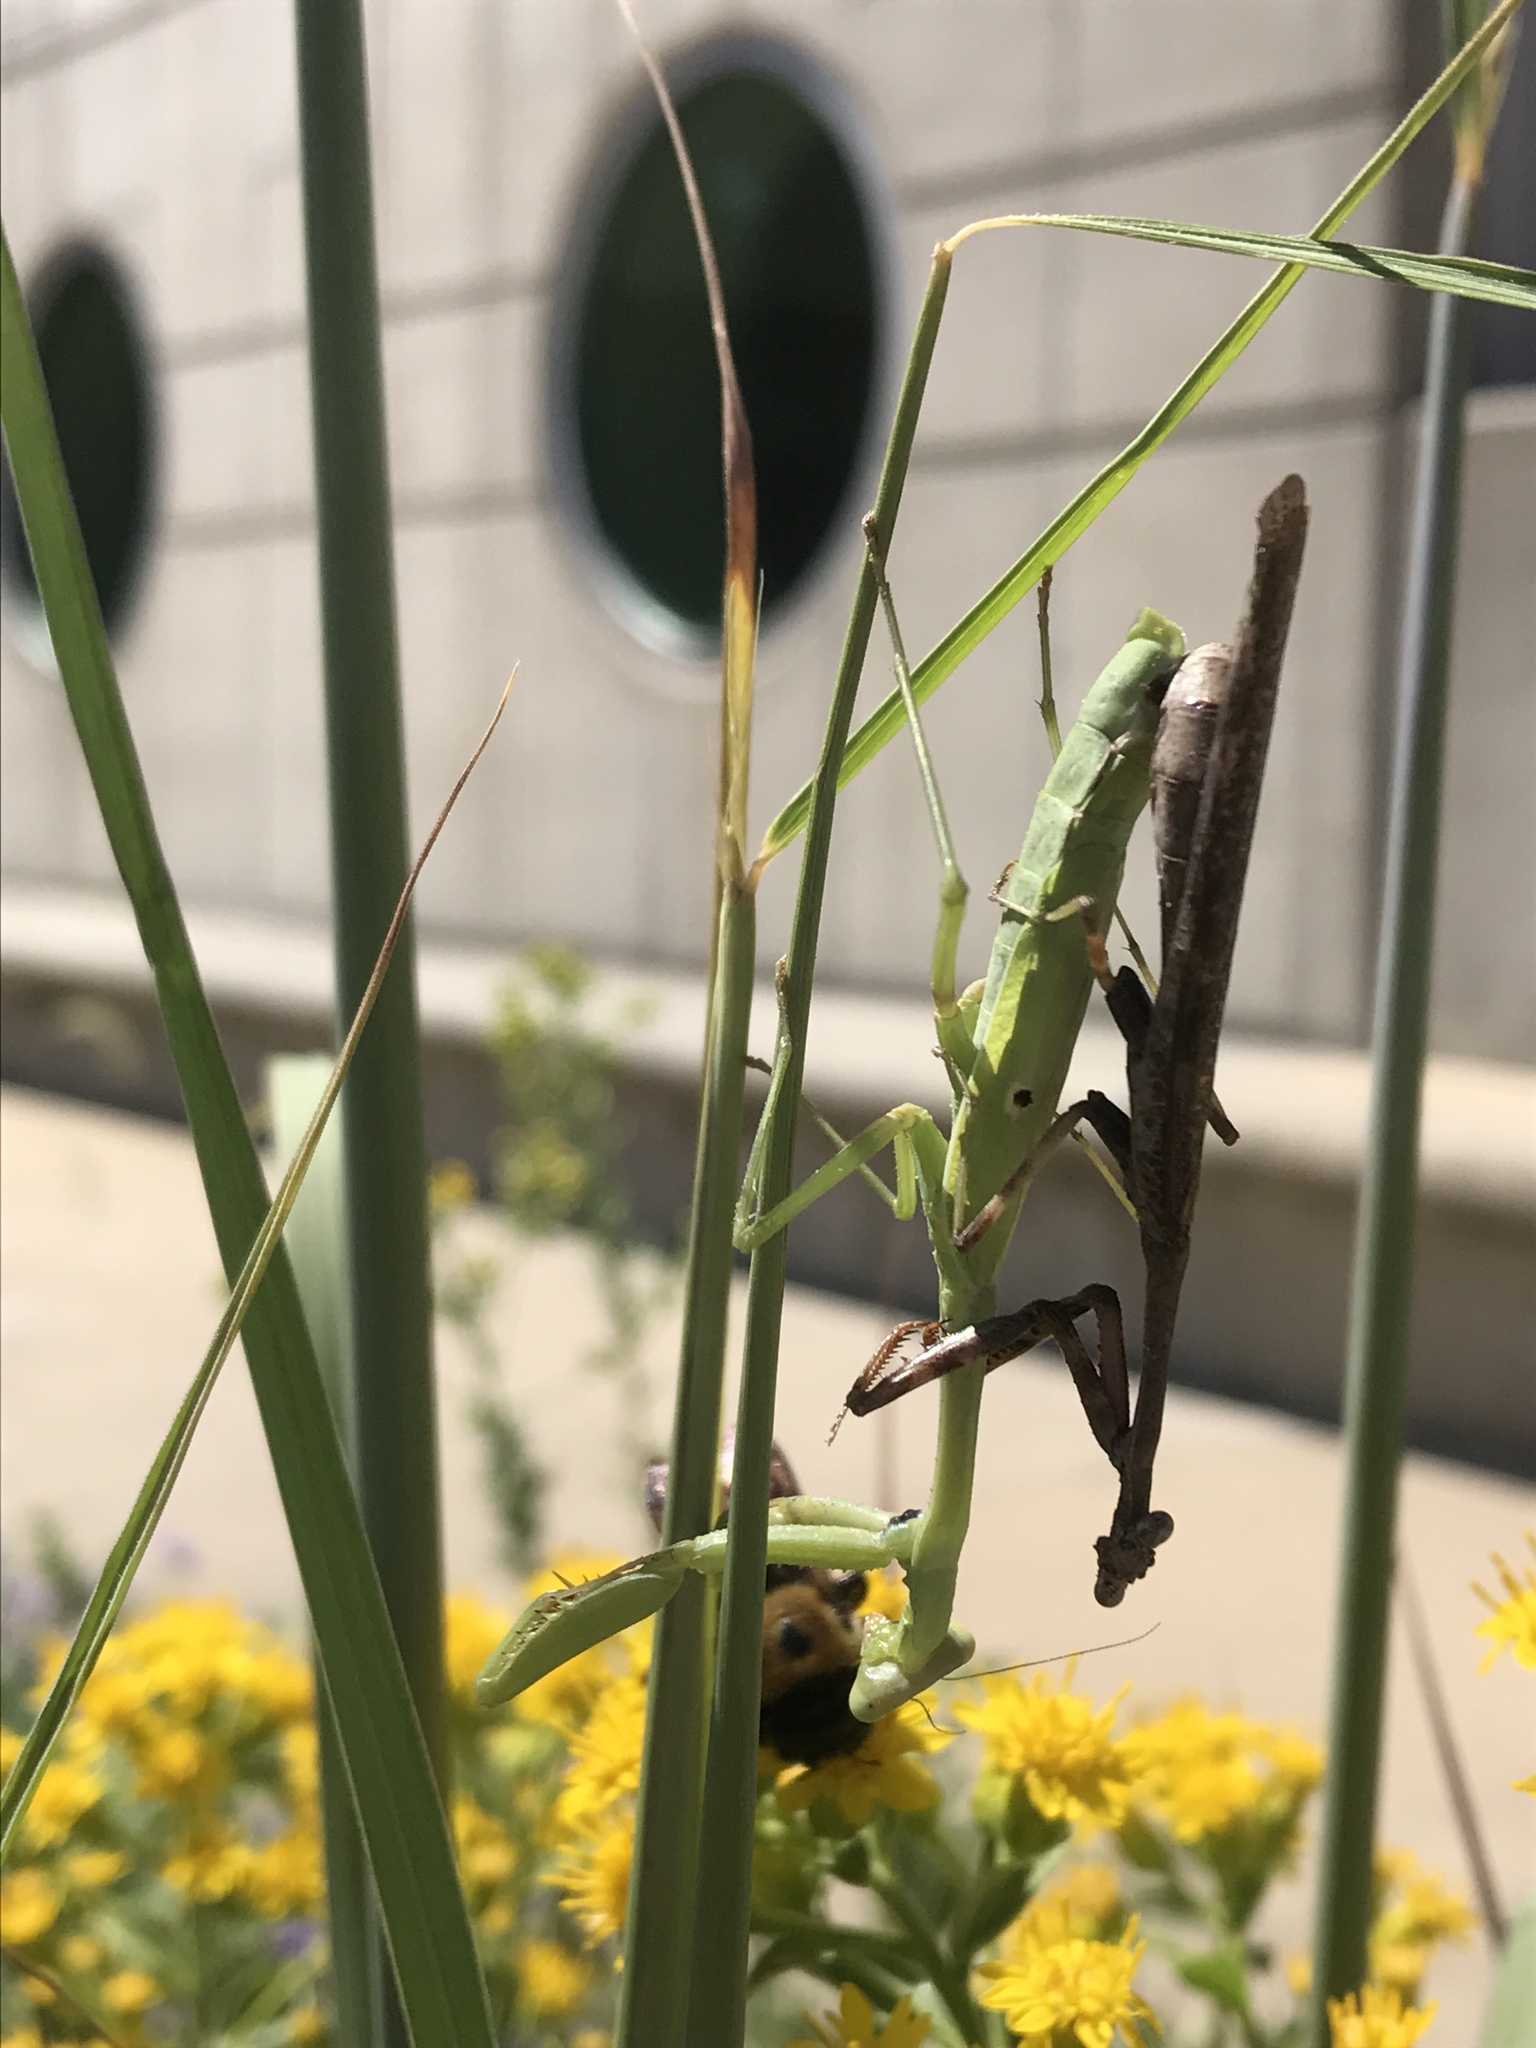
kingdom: Animalia
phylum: Arthropoda
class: Insecta
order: Mantodea
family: Mantidae
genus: Stagmomantis
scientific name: Stagmomantis carolina
